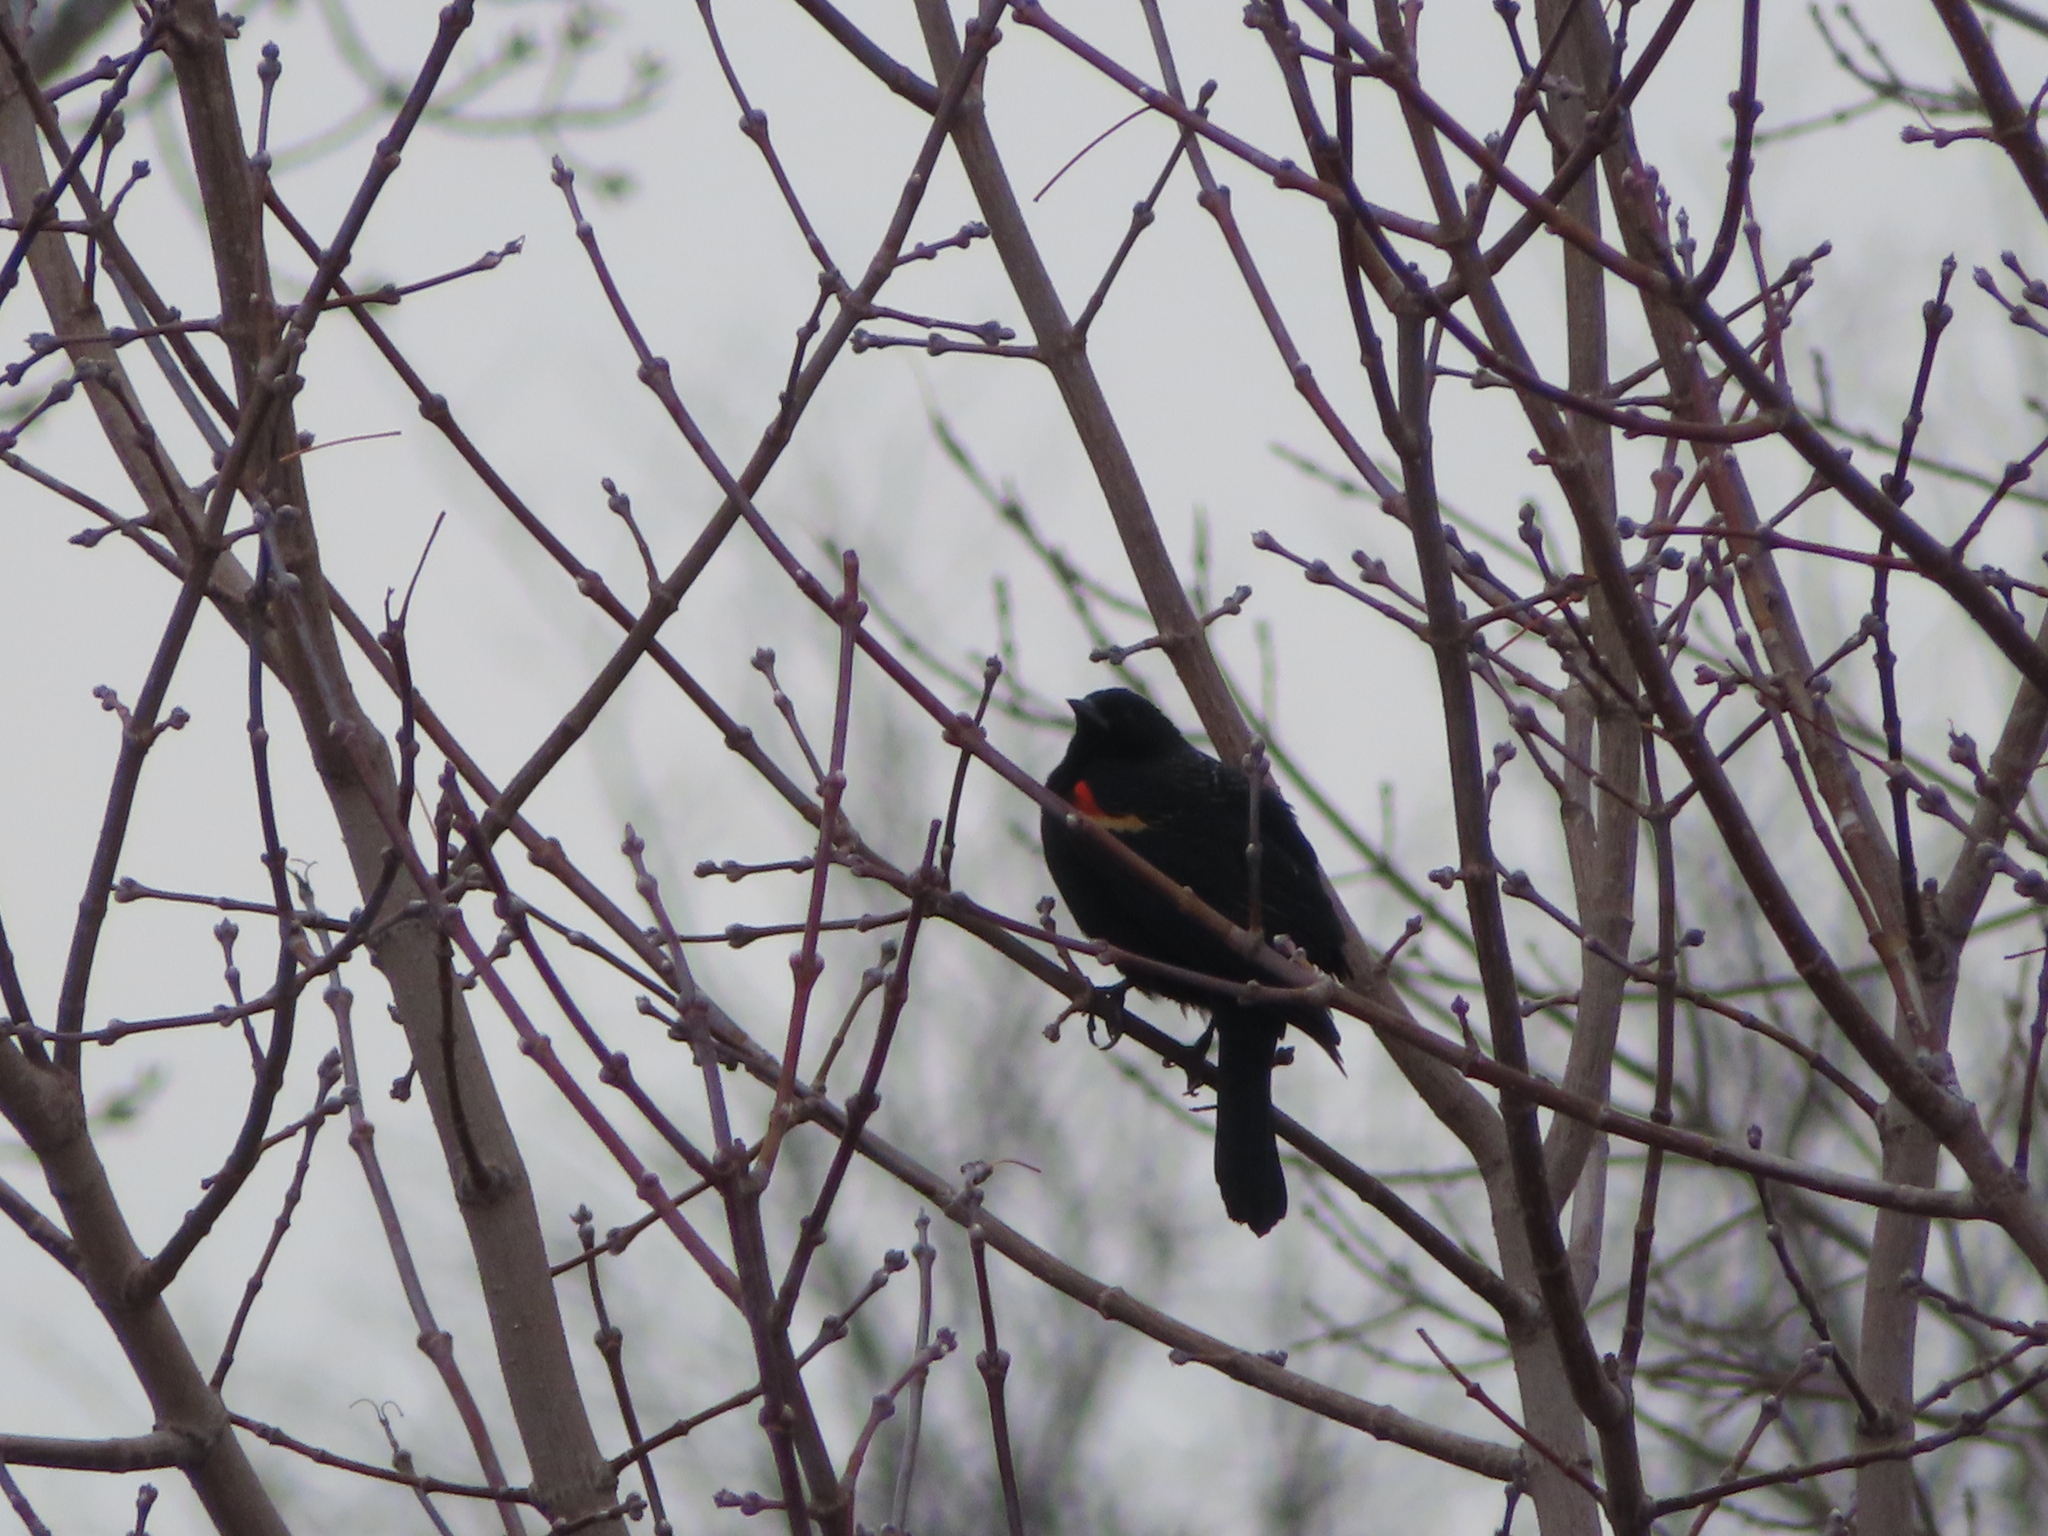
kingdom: Animalia
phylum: Chordata
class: Aves
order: Passeriformes
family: Icteridae
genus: Agelaius
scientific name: Agelaius phoeniceus
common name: Red-winged blackbird
